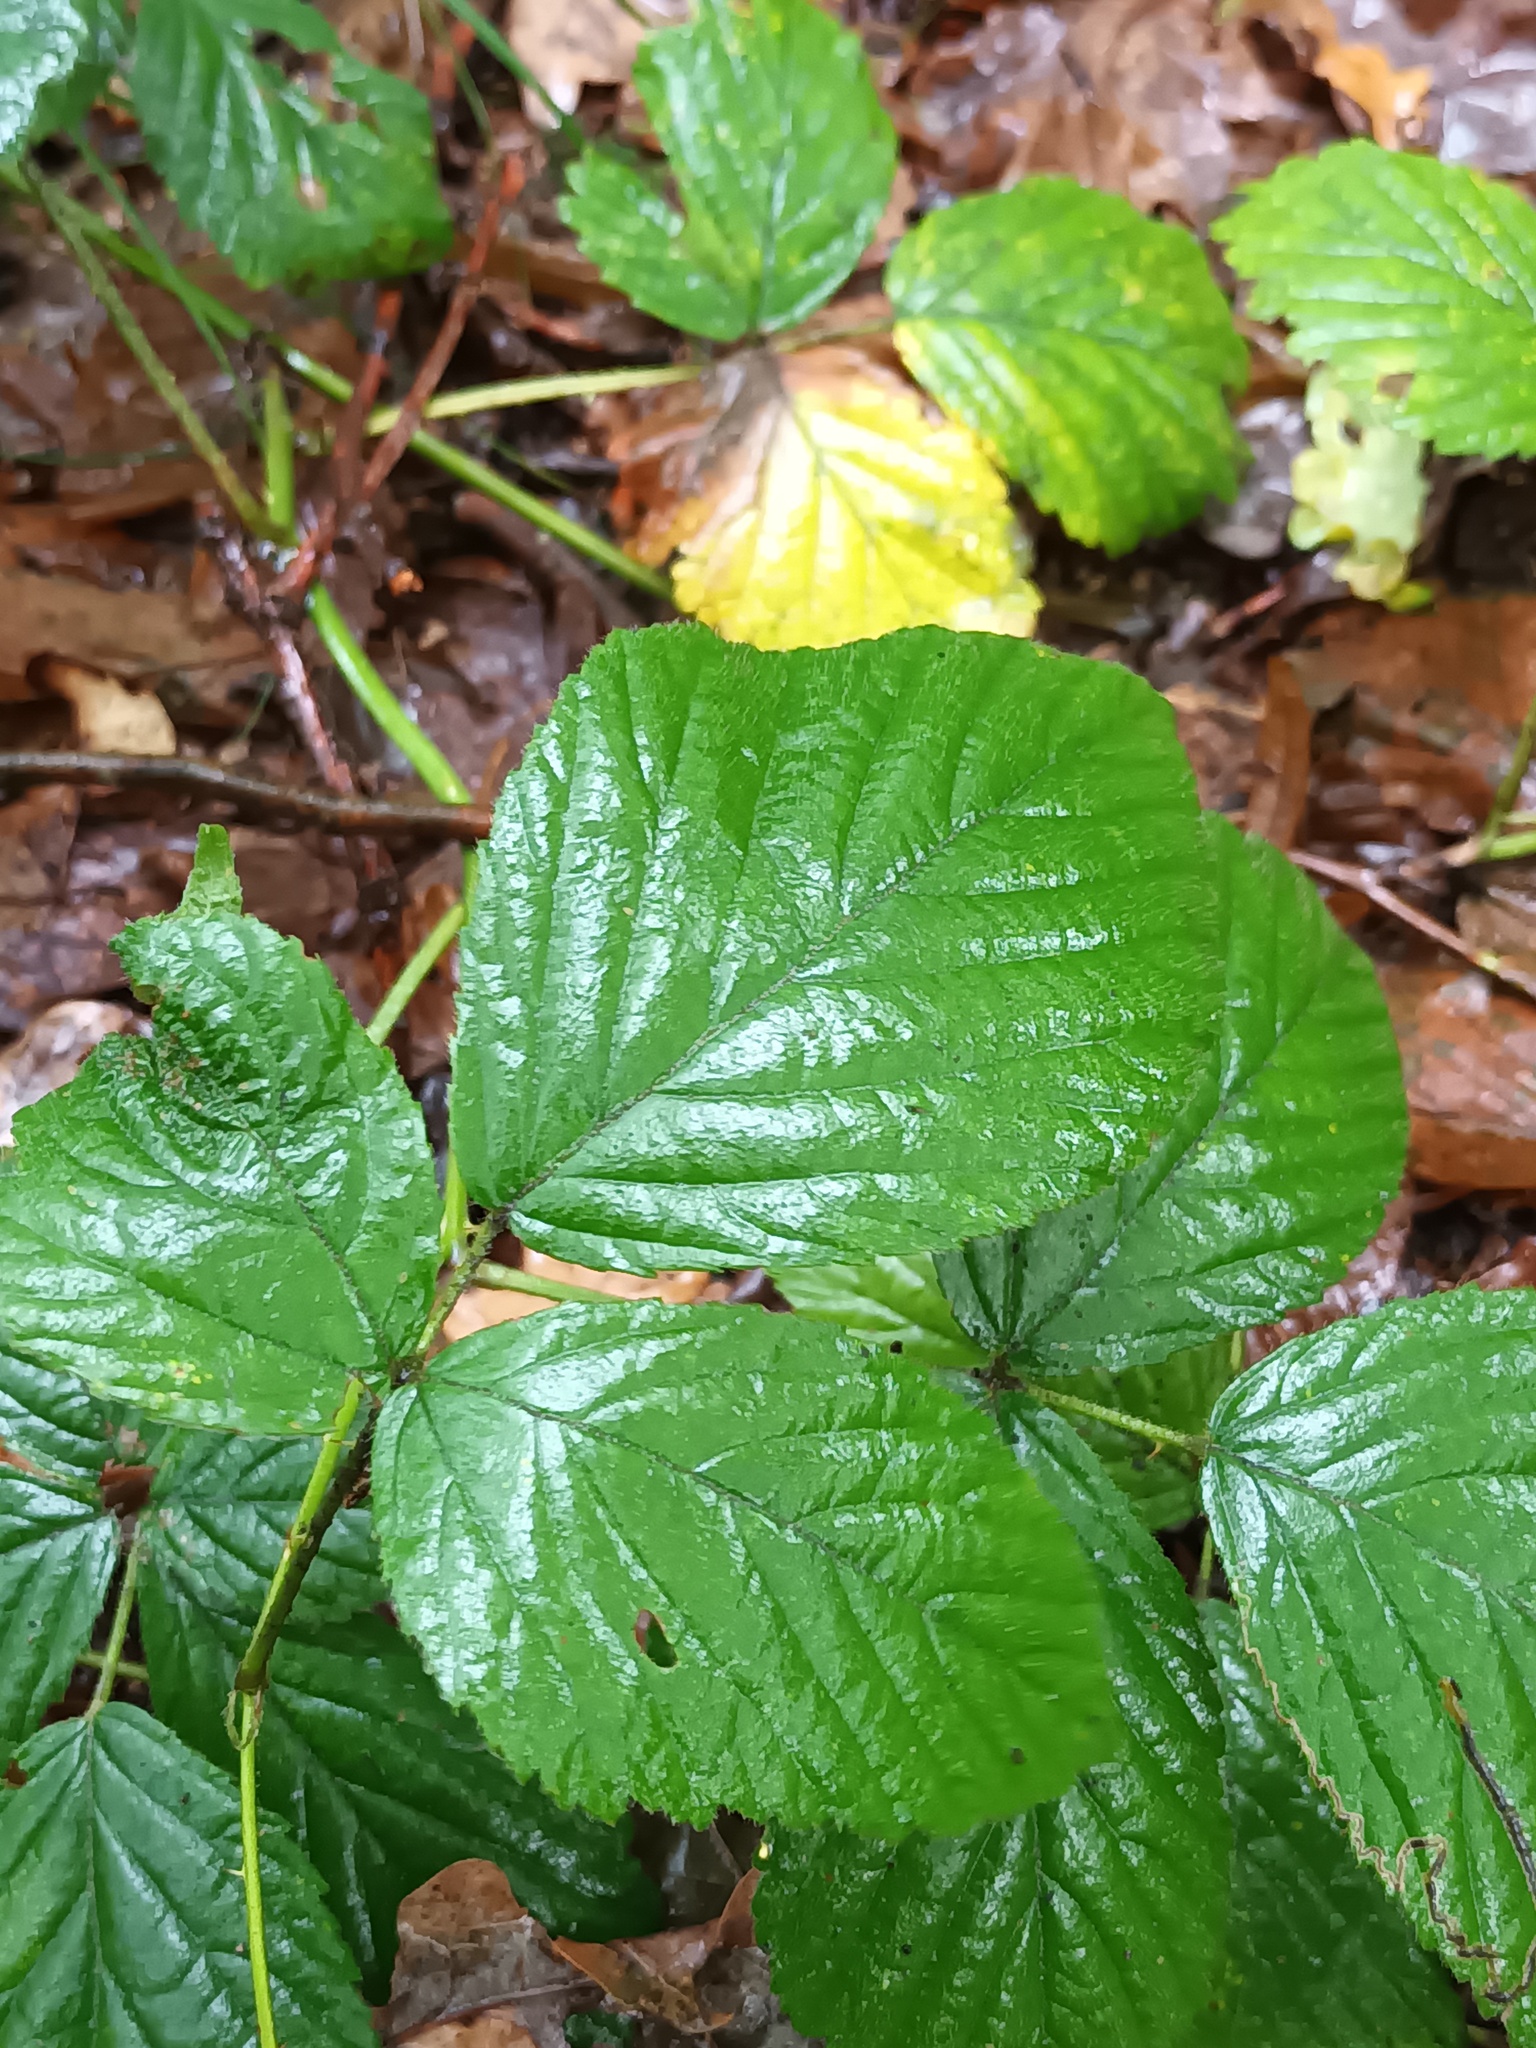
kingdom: Plantae
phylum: Tracheophyta
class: Magnoliopsida
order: Rosales
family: Rosaceae
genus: Rubus
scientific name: Rubus idaeus
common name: Raspberry
